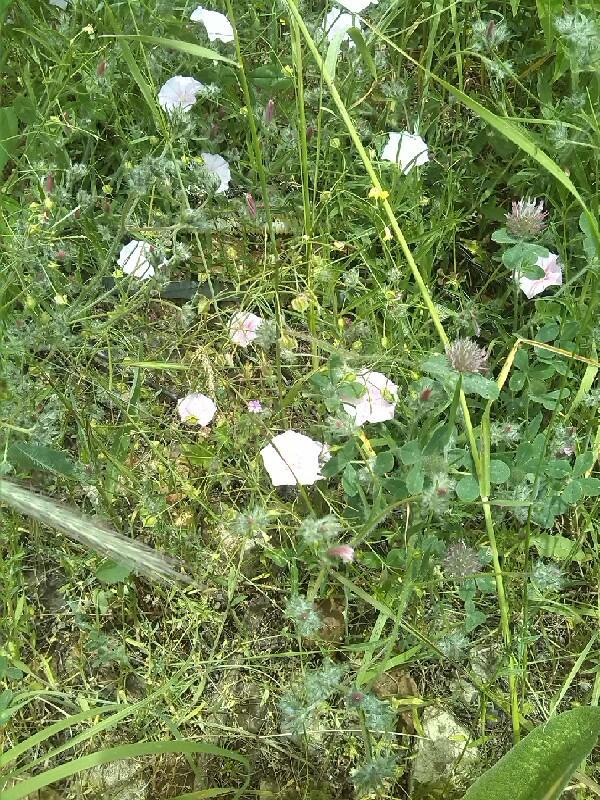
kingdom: Plantae
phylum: Tracheophyta
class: Magnoliopsida
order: Solanales
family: Convolvulaceae
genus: Convolvulus
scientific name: Convolvulus elegantissimus
